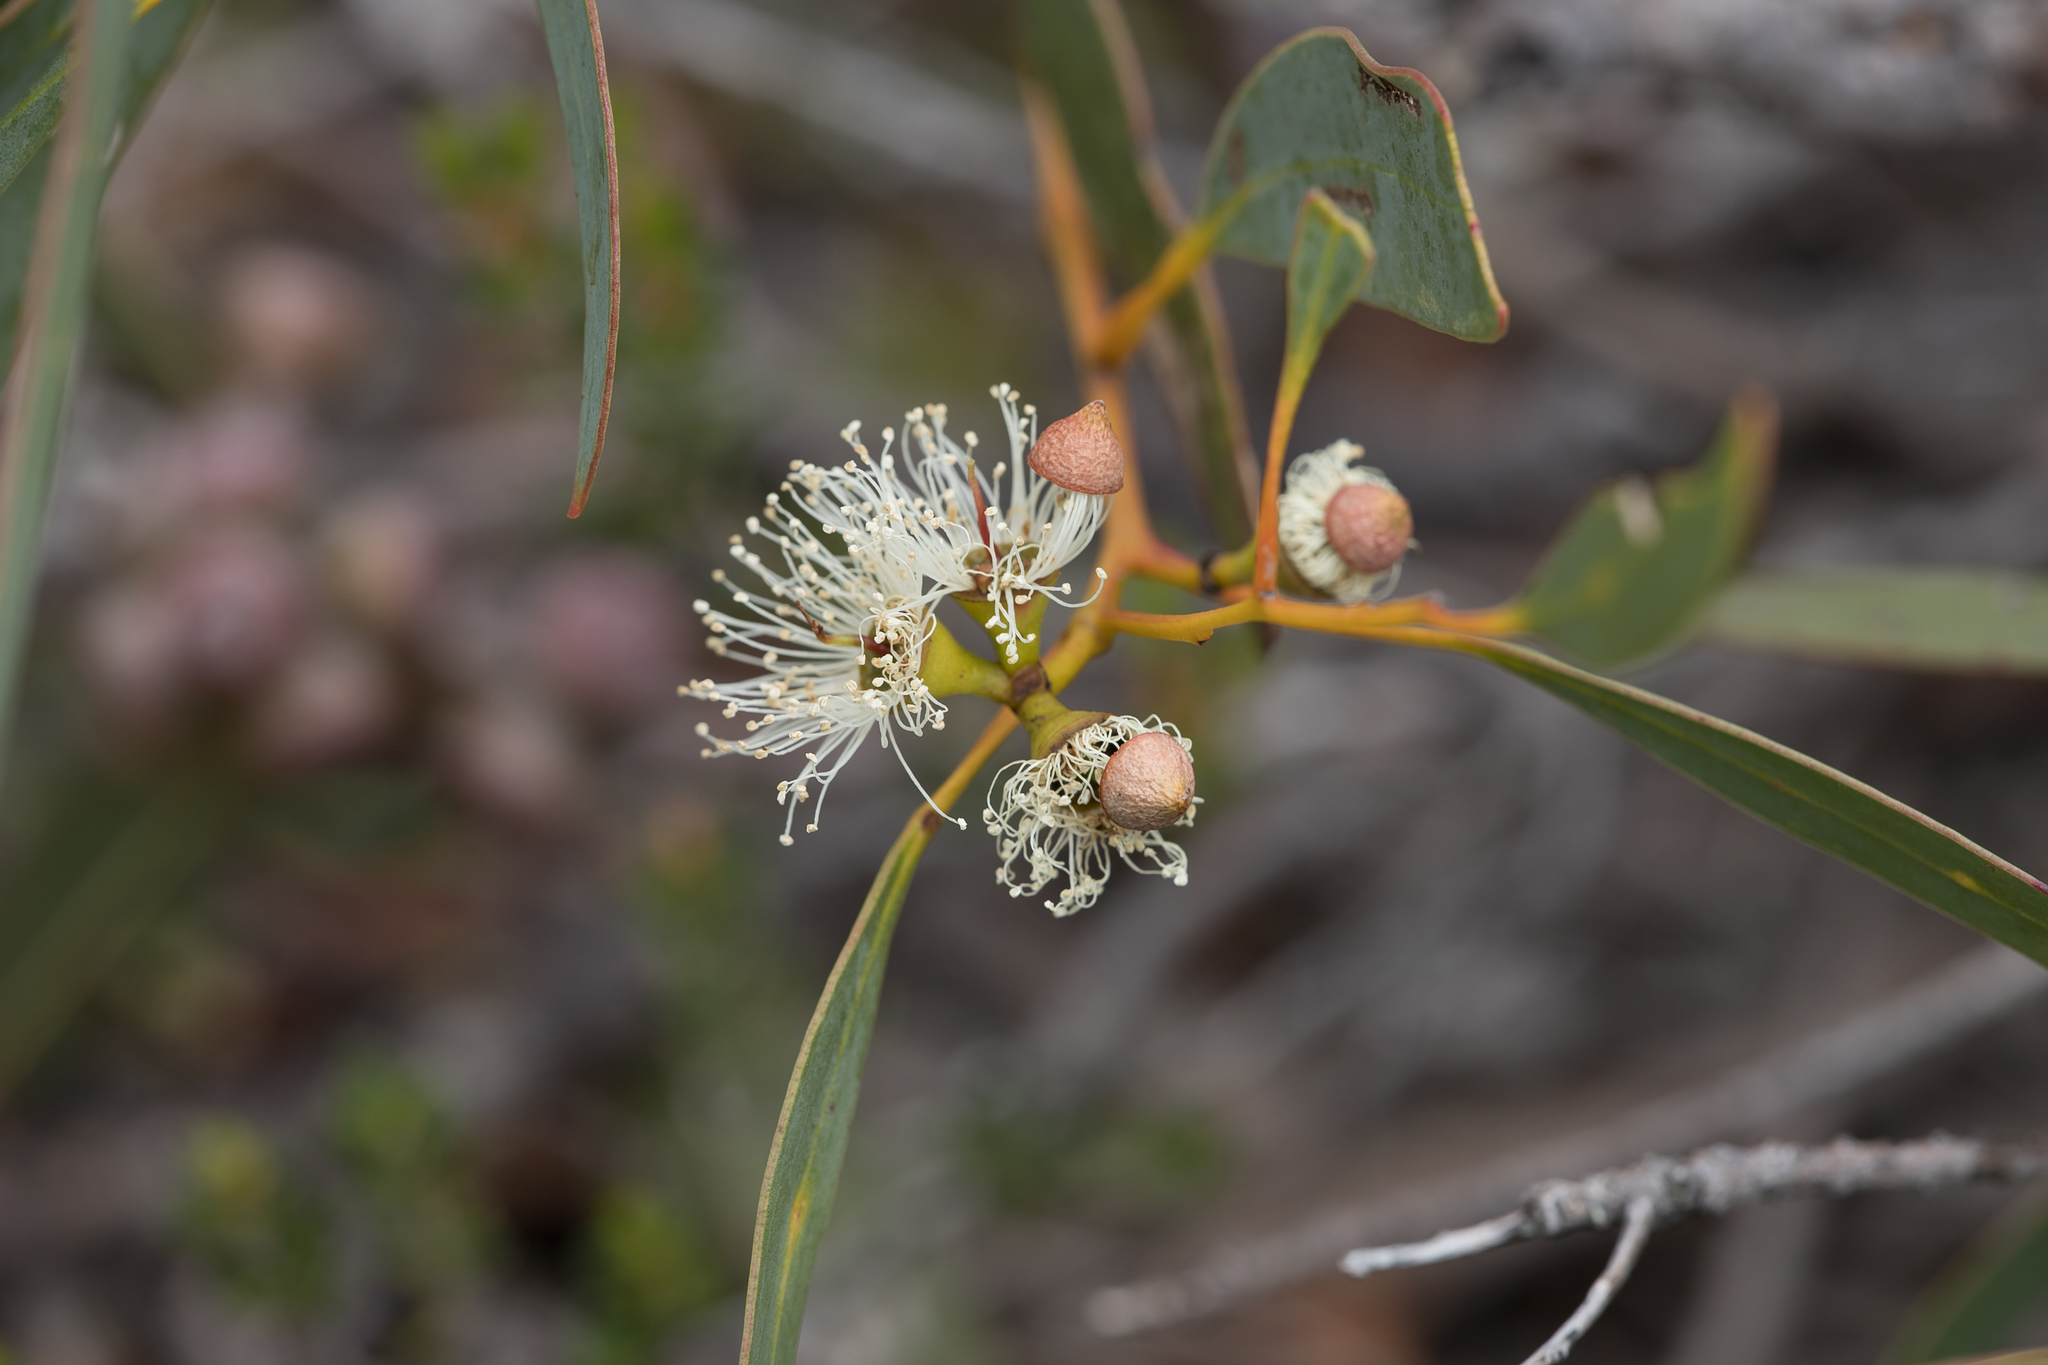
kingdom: Plantae
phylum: Tracheophyta
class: Magnoliopsida
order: Myrtales
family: Myrtaceae
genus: Eucalyptus
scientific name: Eucalyptus diversifolia
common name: Coastal white mallee
